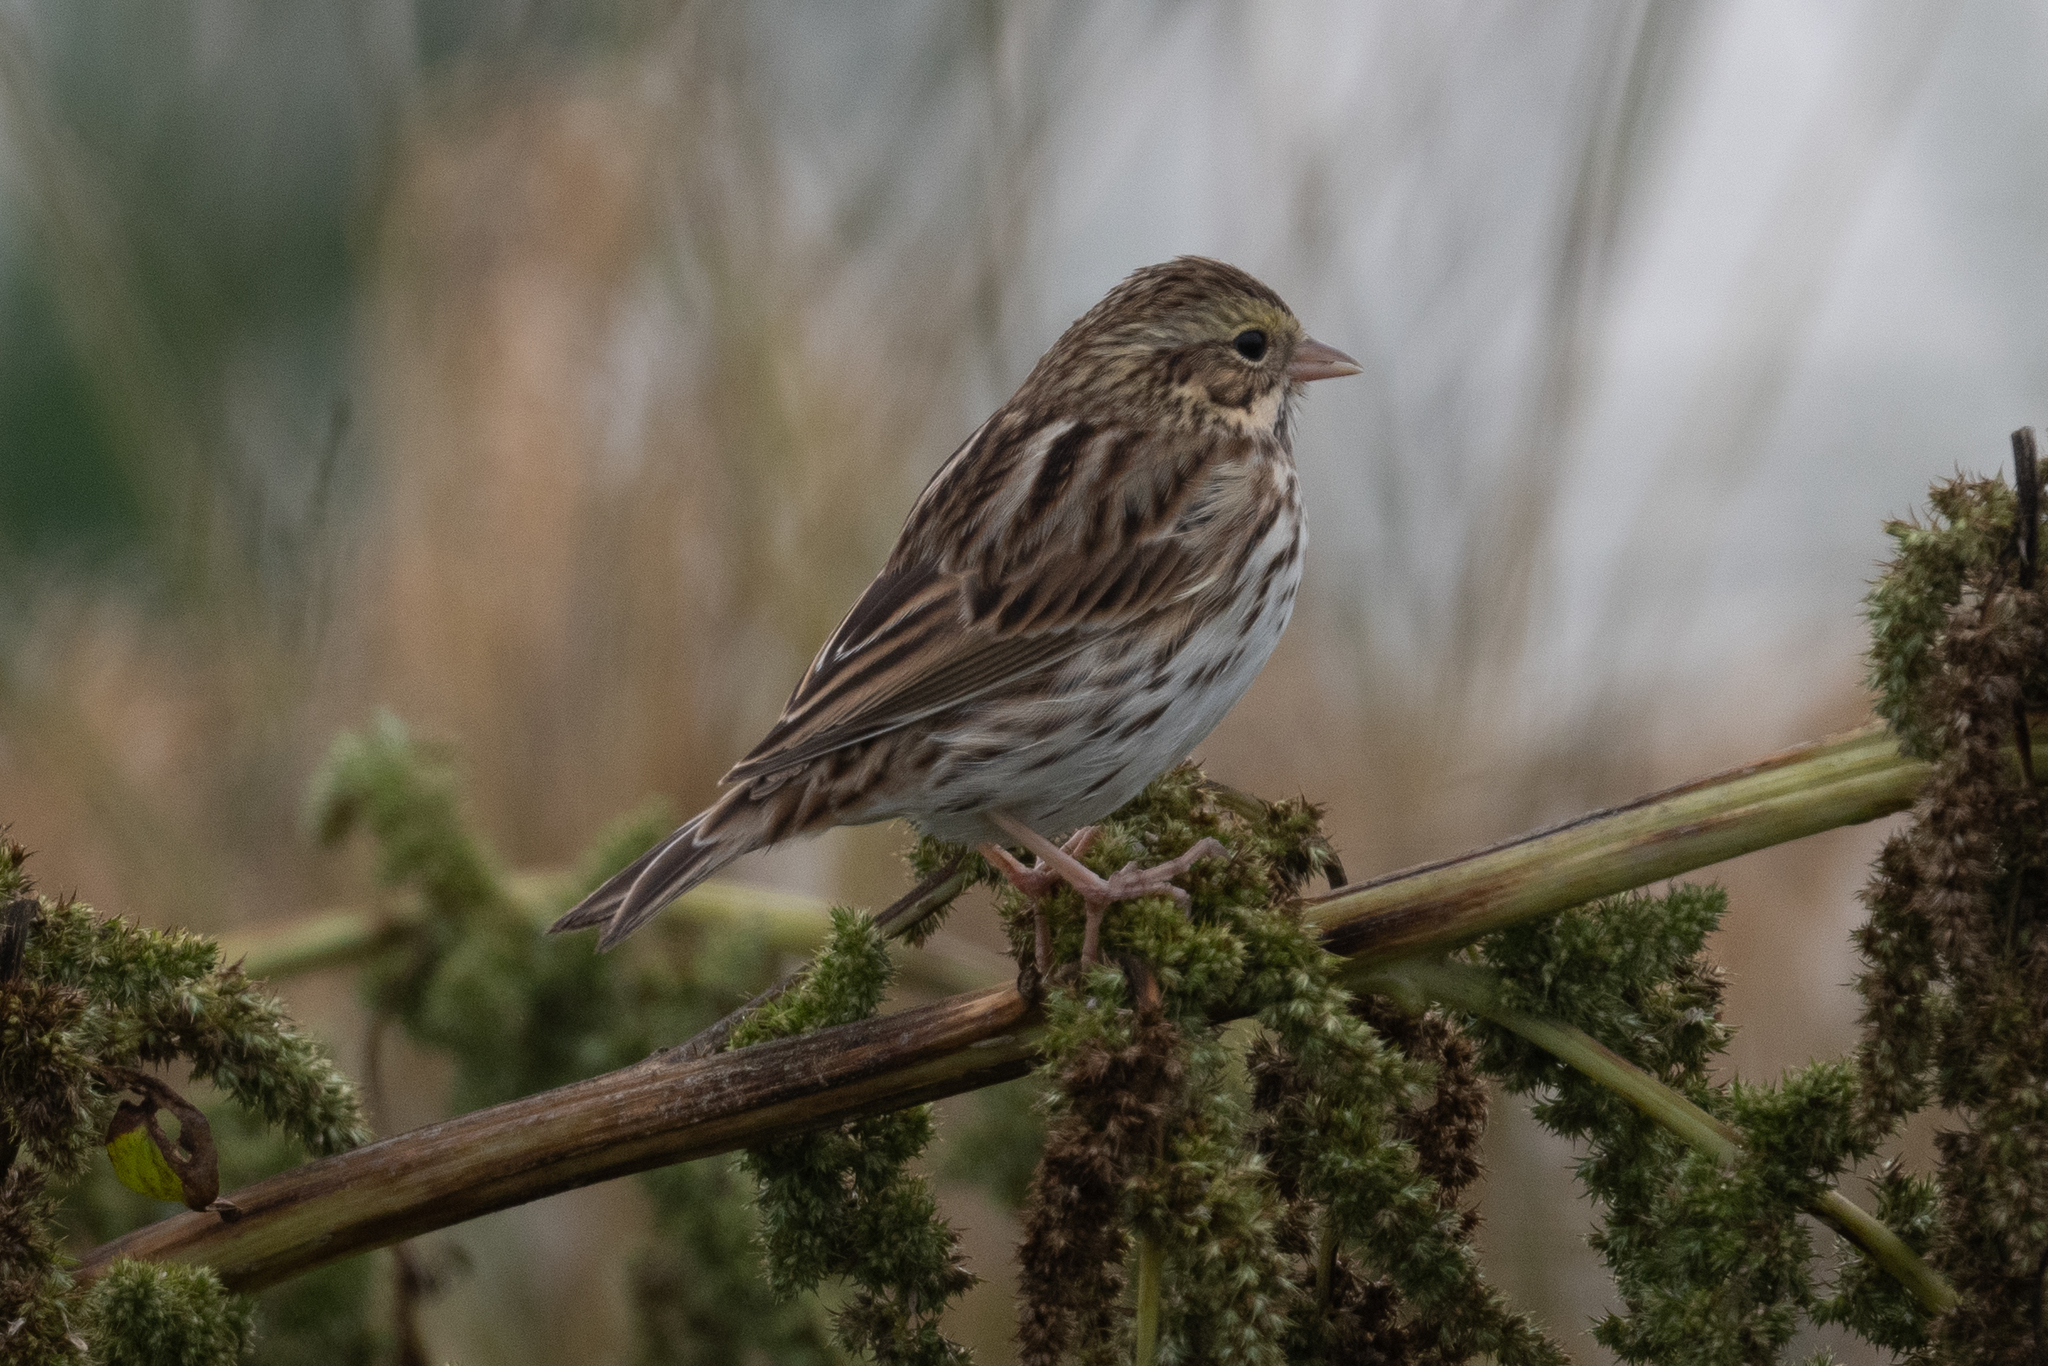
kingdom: Animalia
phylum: Chordata
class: Aves
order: Passeriformes
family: Passerellidae
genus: Passerculus
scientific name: Passerculus sandwichensis
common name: Savannah sparrow
